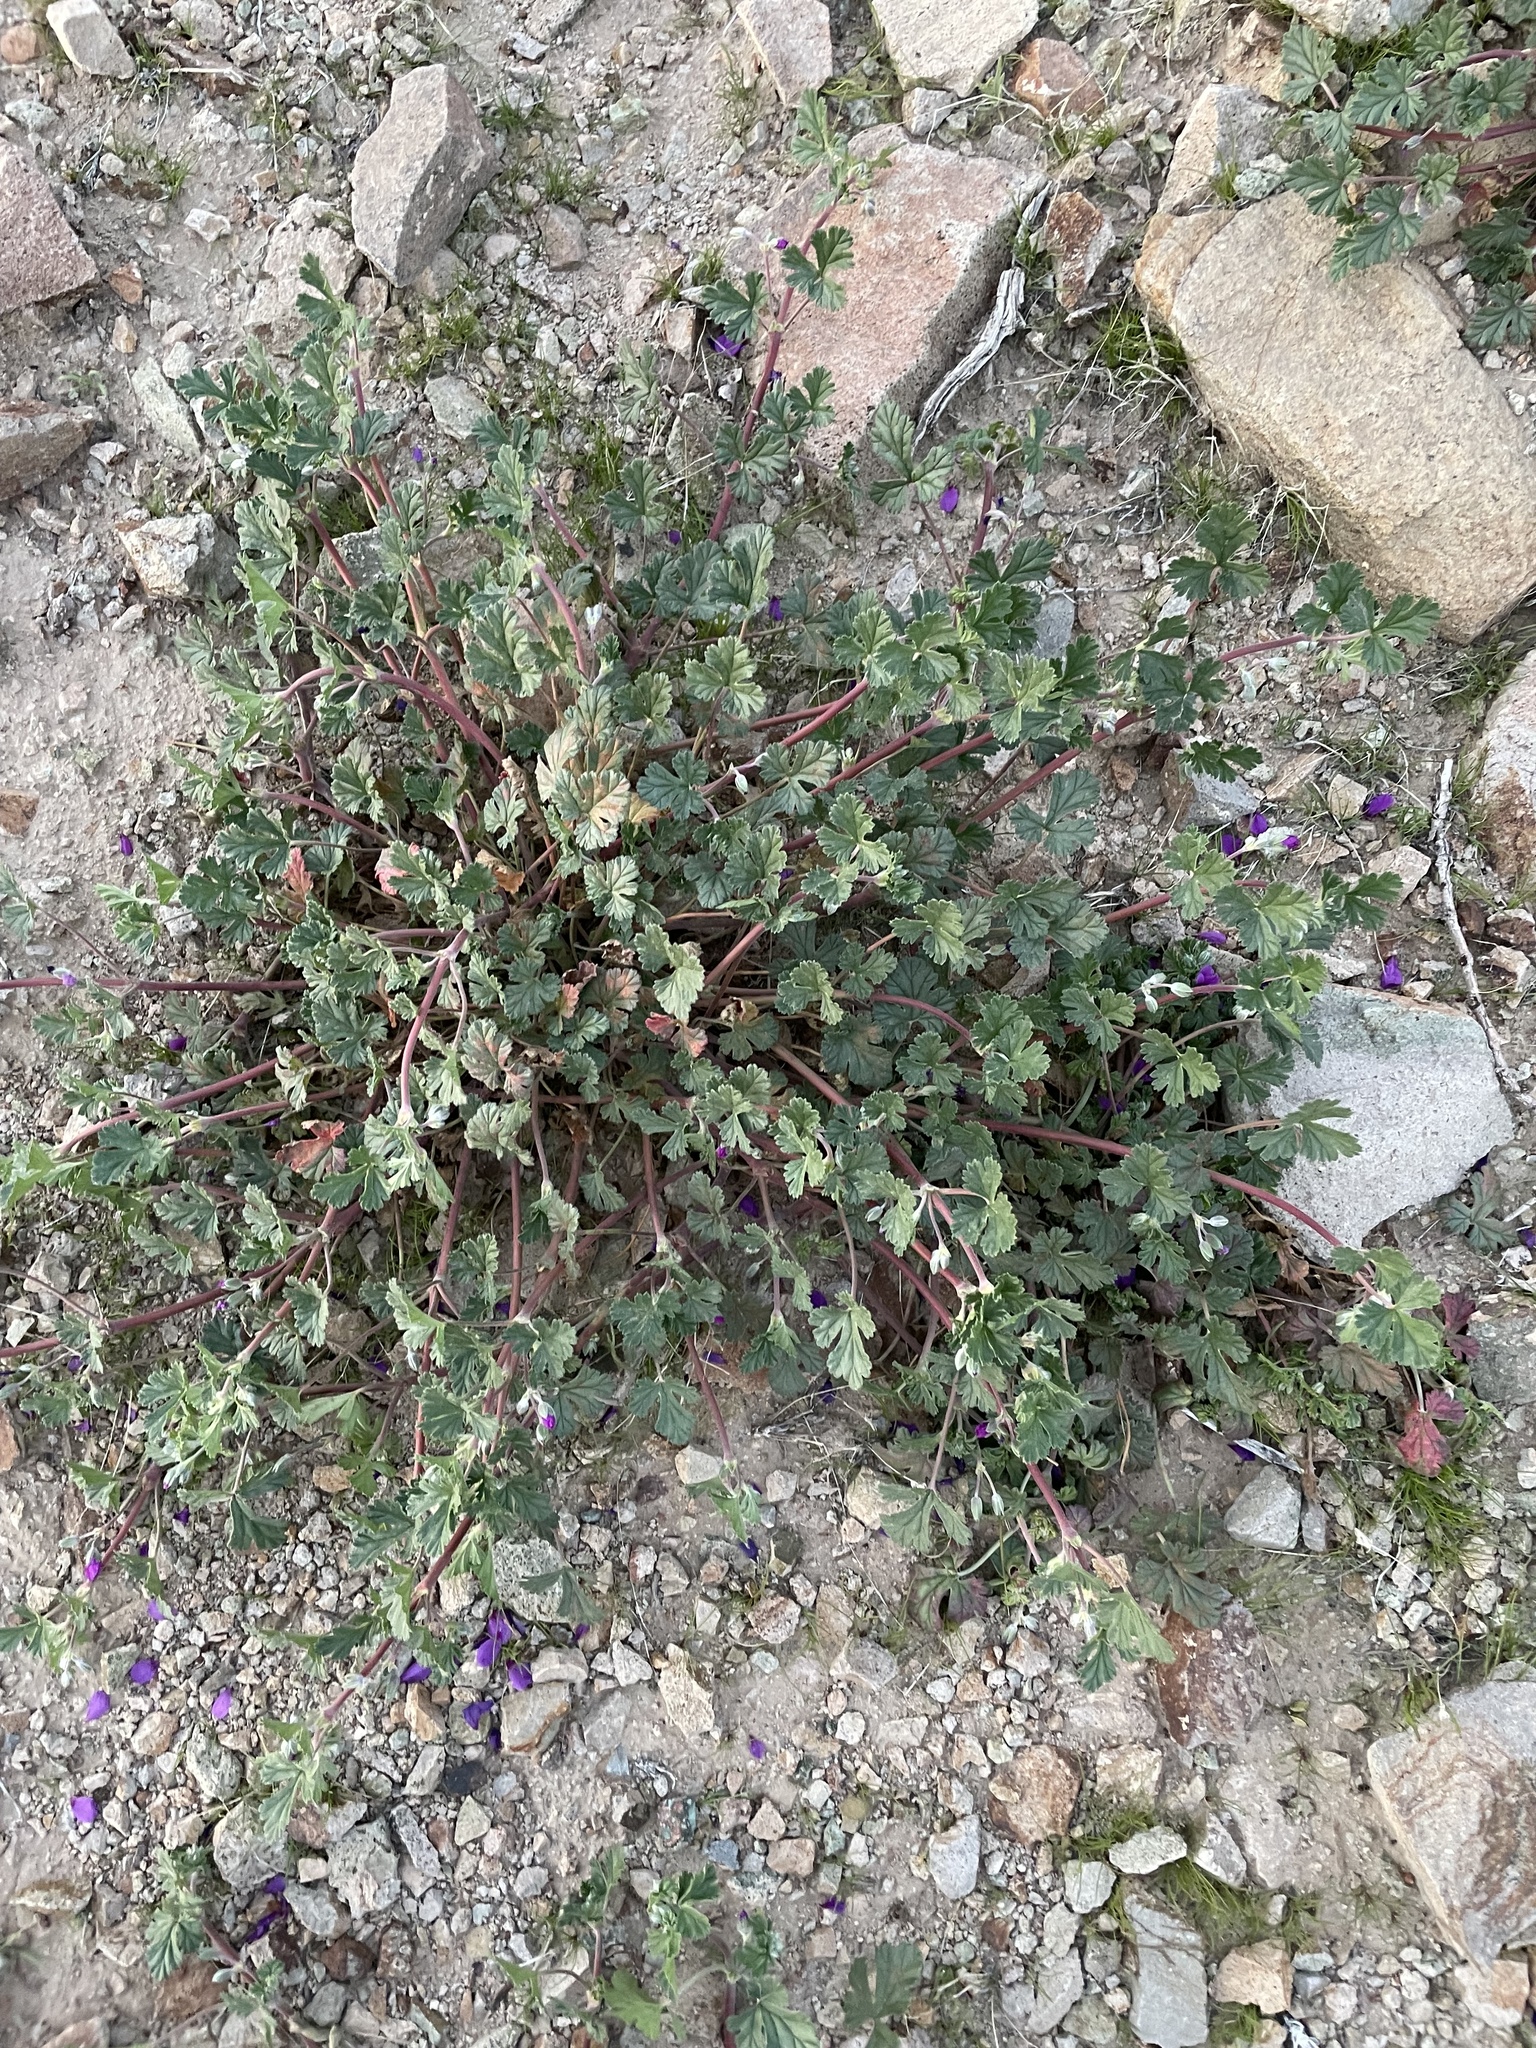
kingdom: Plantae
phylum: Tracheophyta
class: Magnoliopsida
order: Geraniales
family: Geraniaceae
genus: Erodium
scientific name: Erodium texanum
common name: Texas stork's-bill
